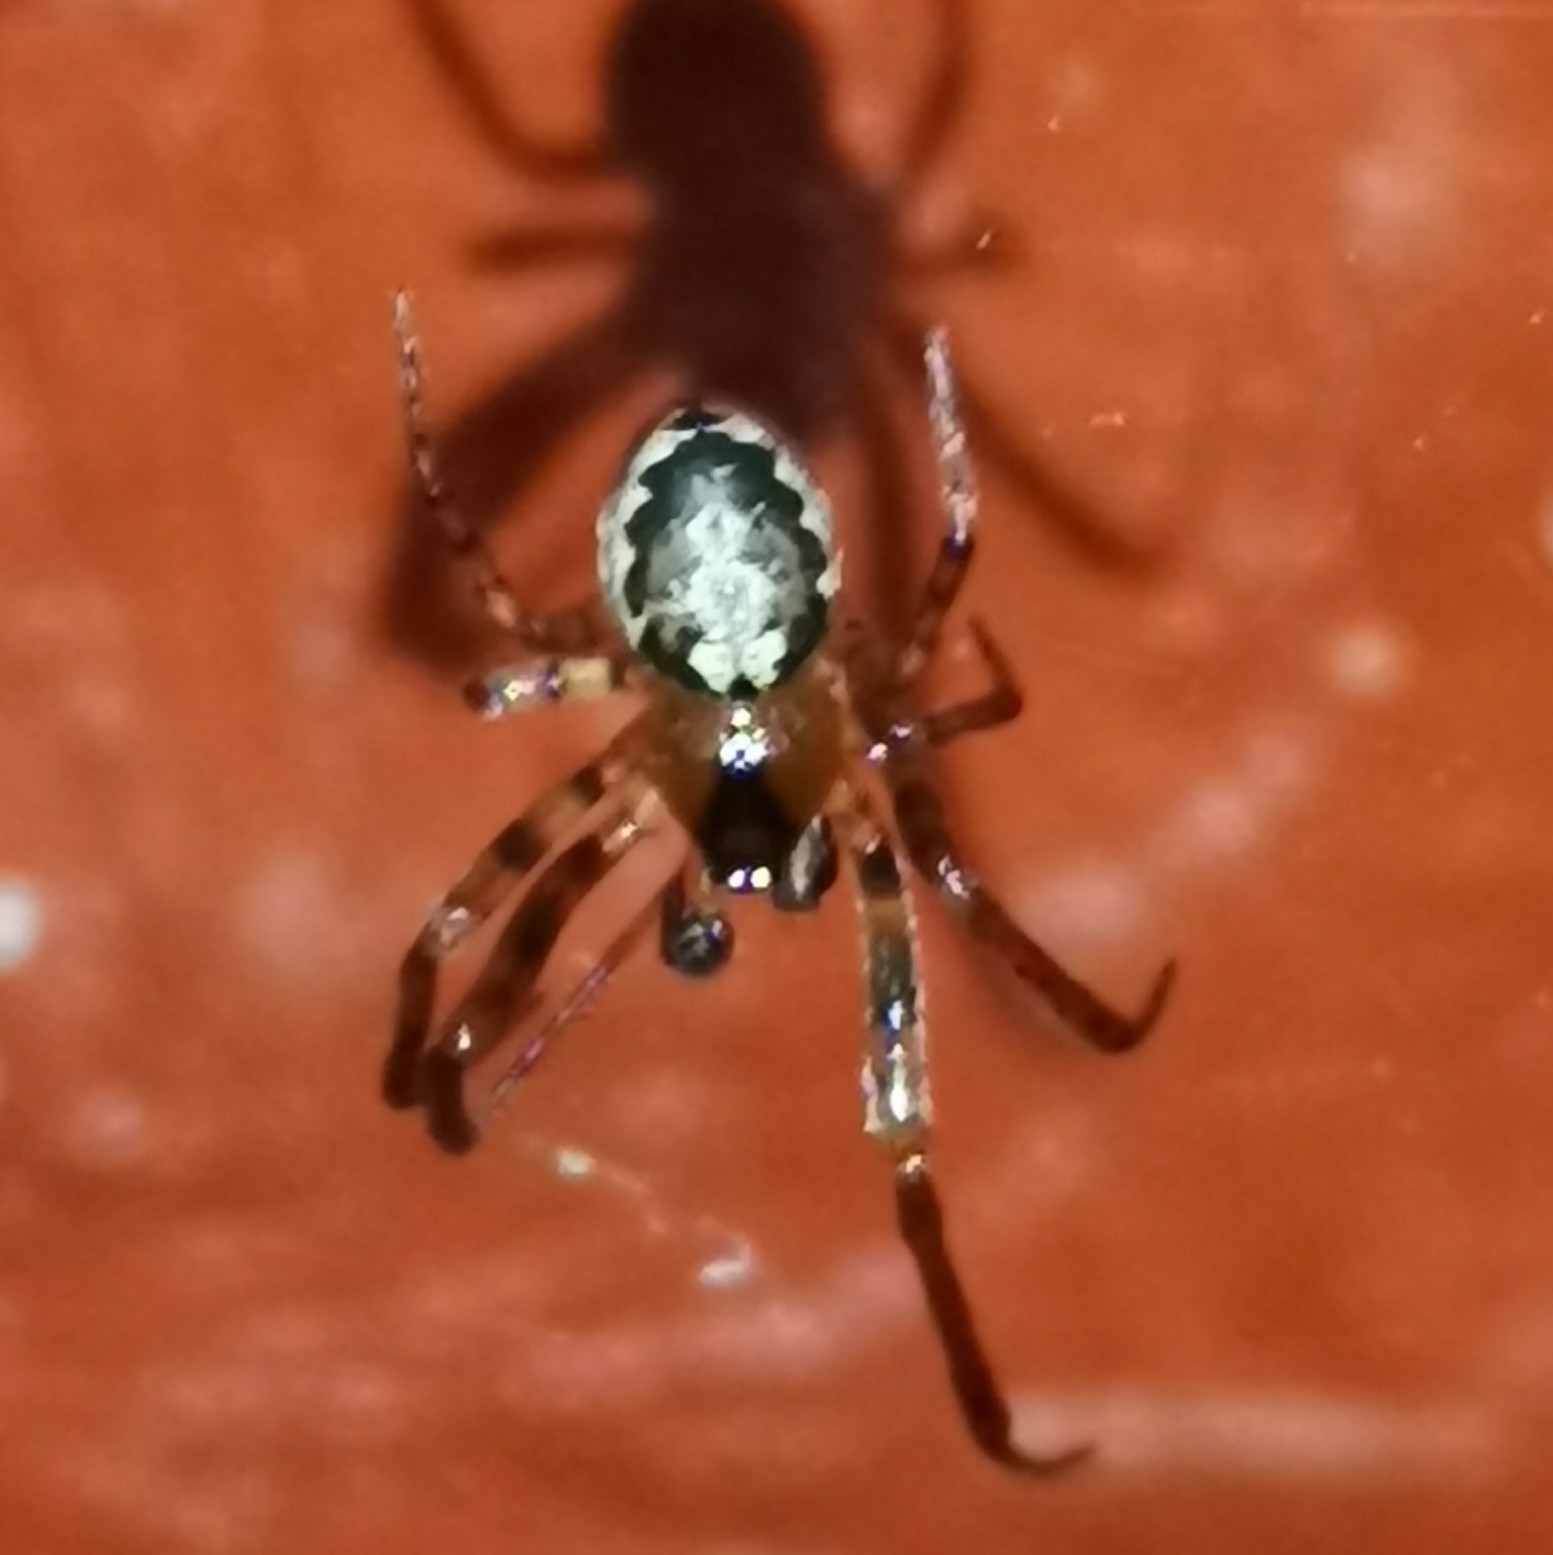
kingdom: Animalia
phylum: Arthropoda
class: Arachnida
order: Araneae
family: Araneidae
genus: Leviellus
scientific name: Leviellus stroemi
